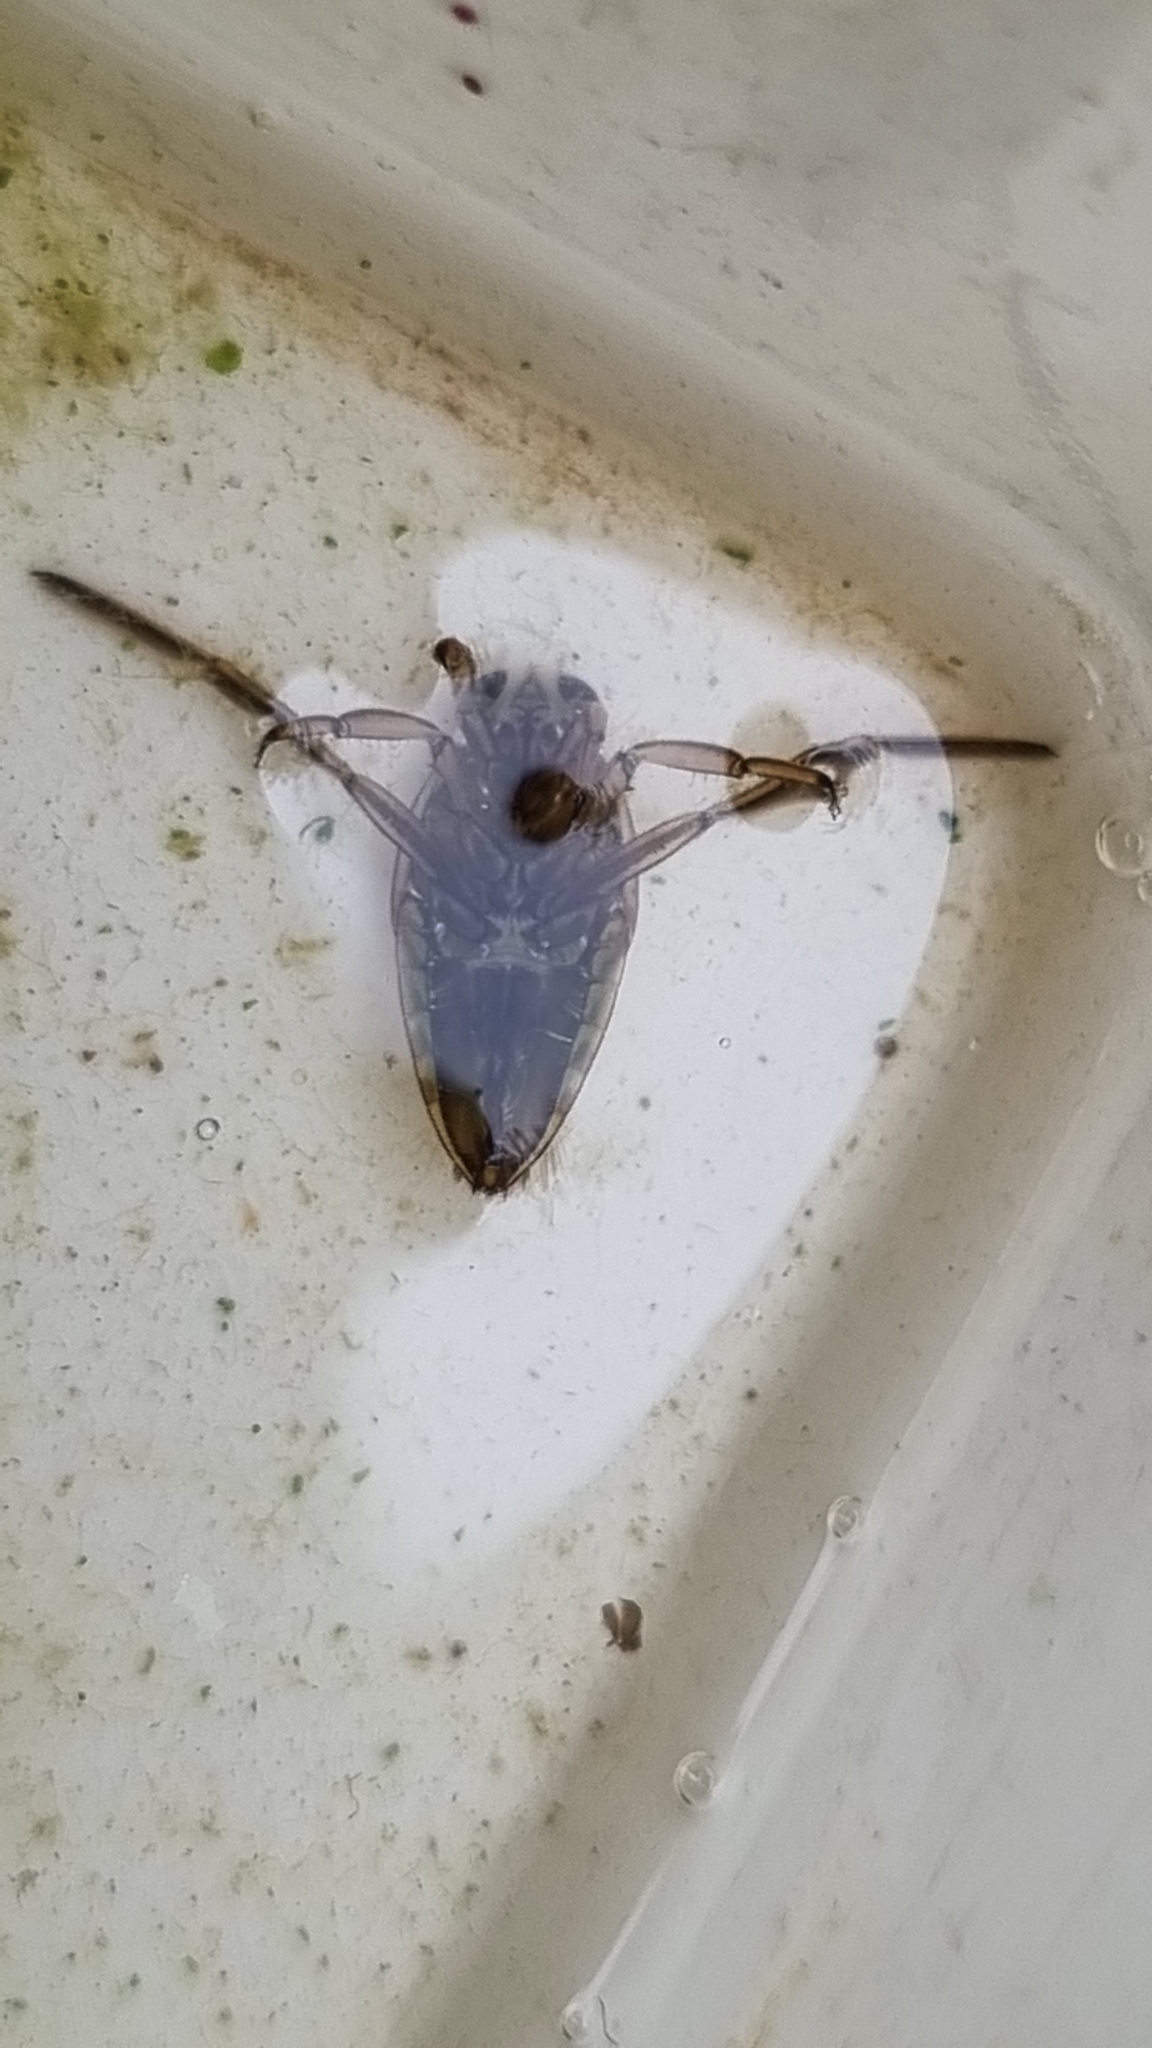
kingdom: Animalia
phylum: Arthropoda
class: Insecta
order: Hemiptera
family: Notonectidae
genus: Notonecta
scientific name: Notonecta
